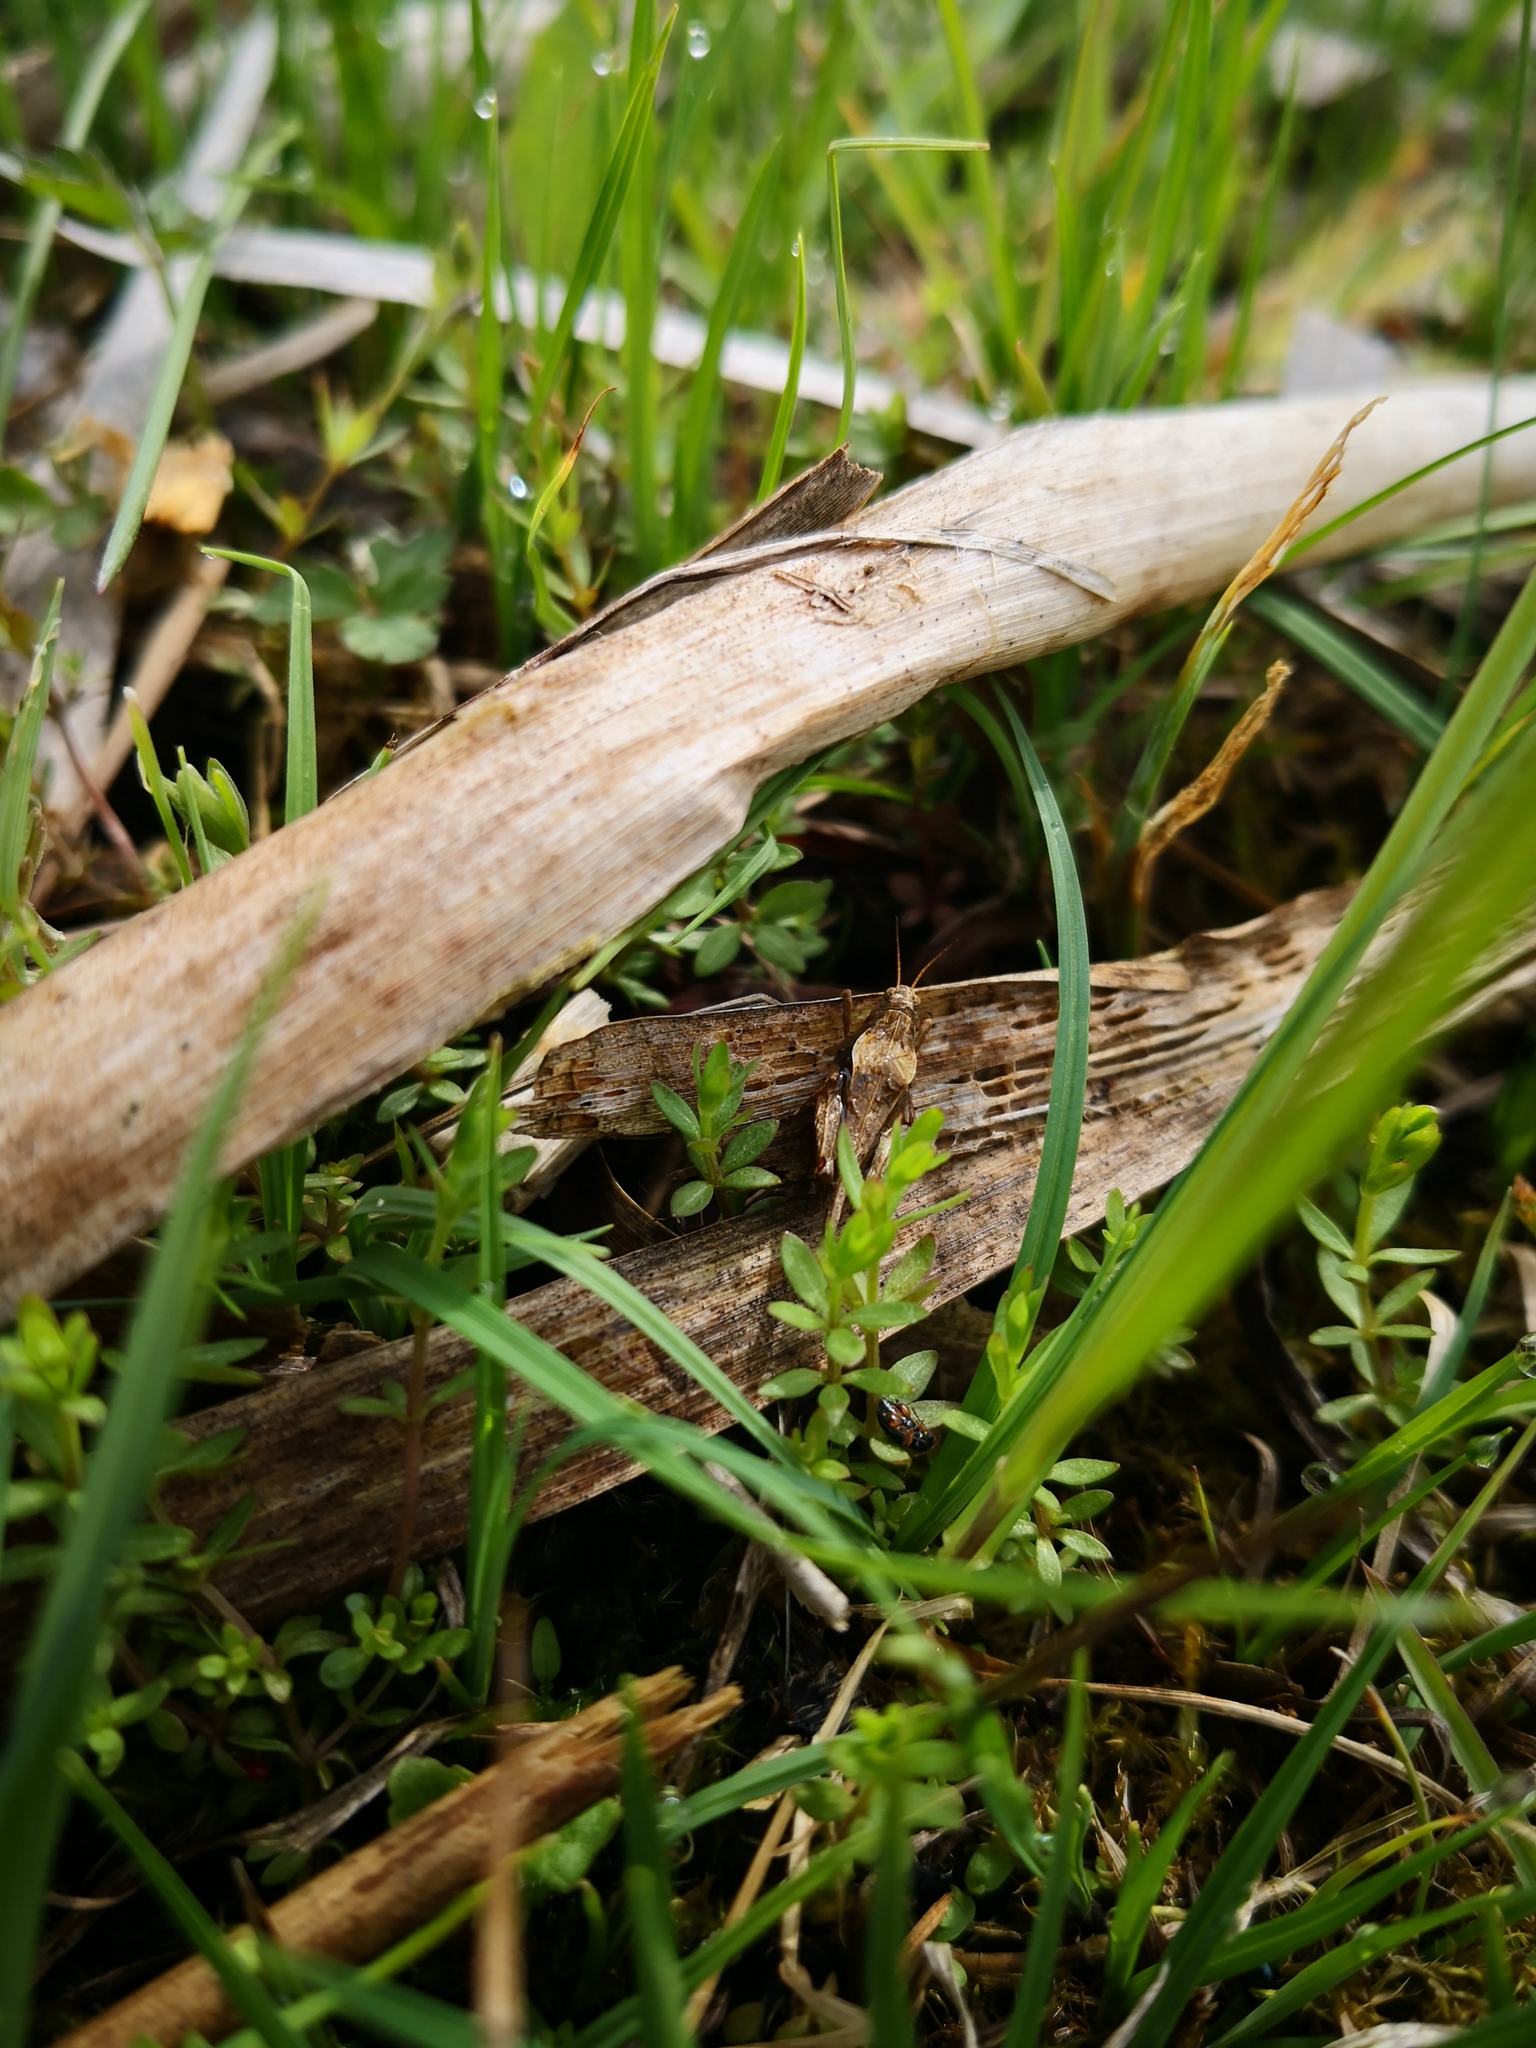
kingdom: Animalia
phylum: Arthropoda
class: Insecta
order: Orthoptera
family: Tetrigidae
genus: Tetrix
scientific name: Tetrix subulata
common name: Slender ground-hopper
